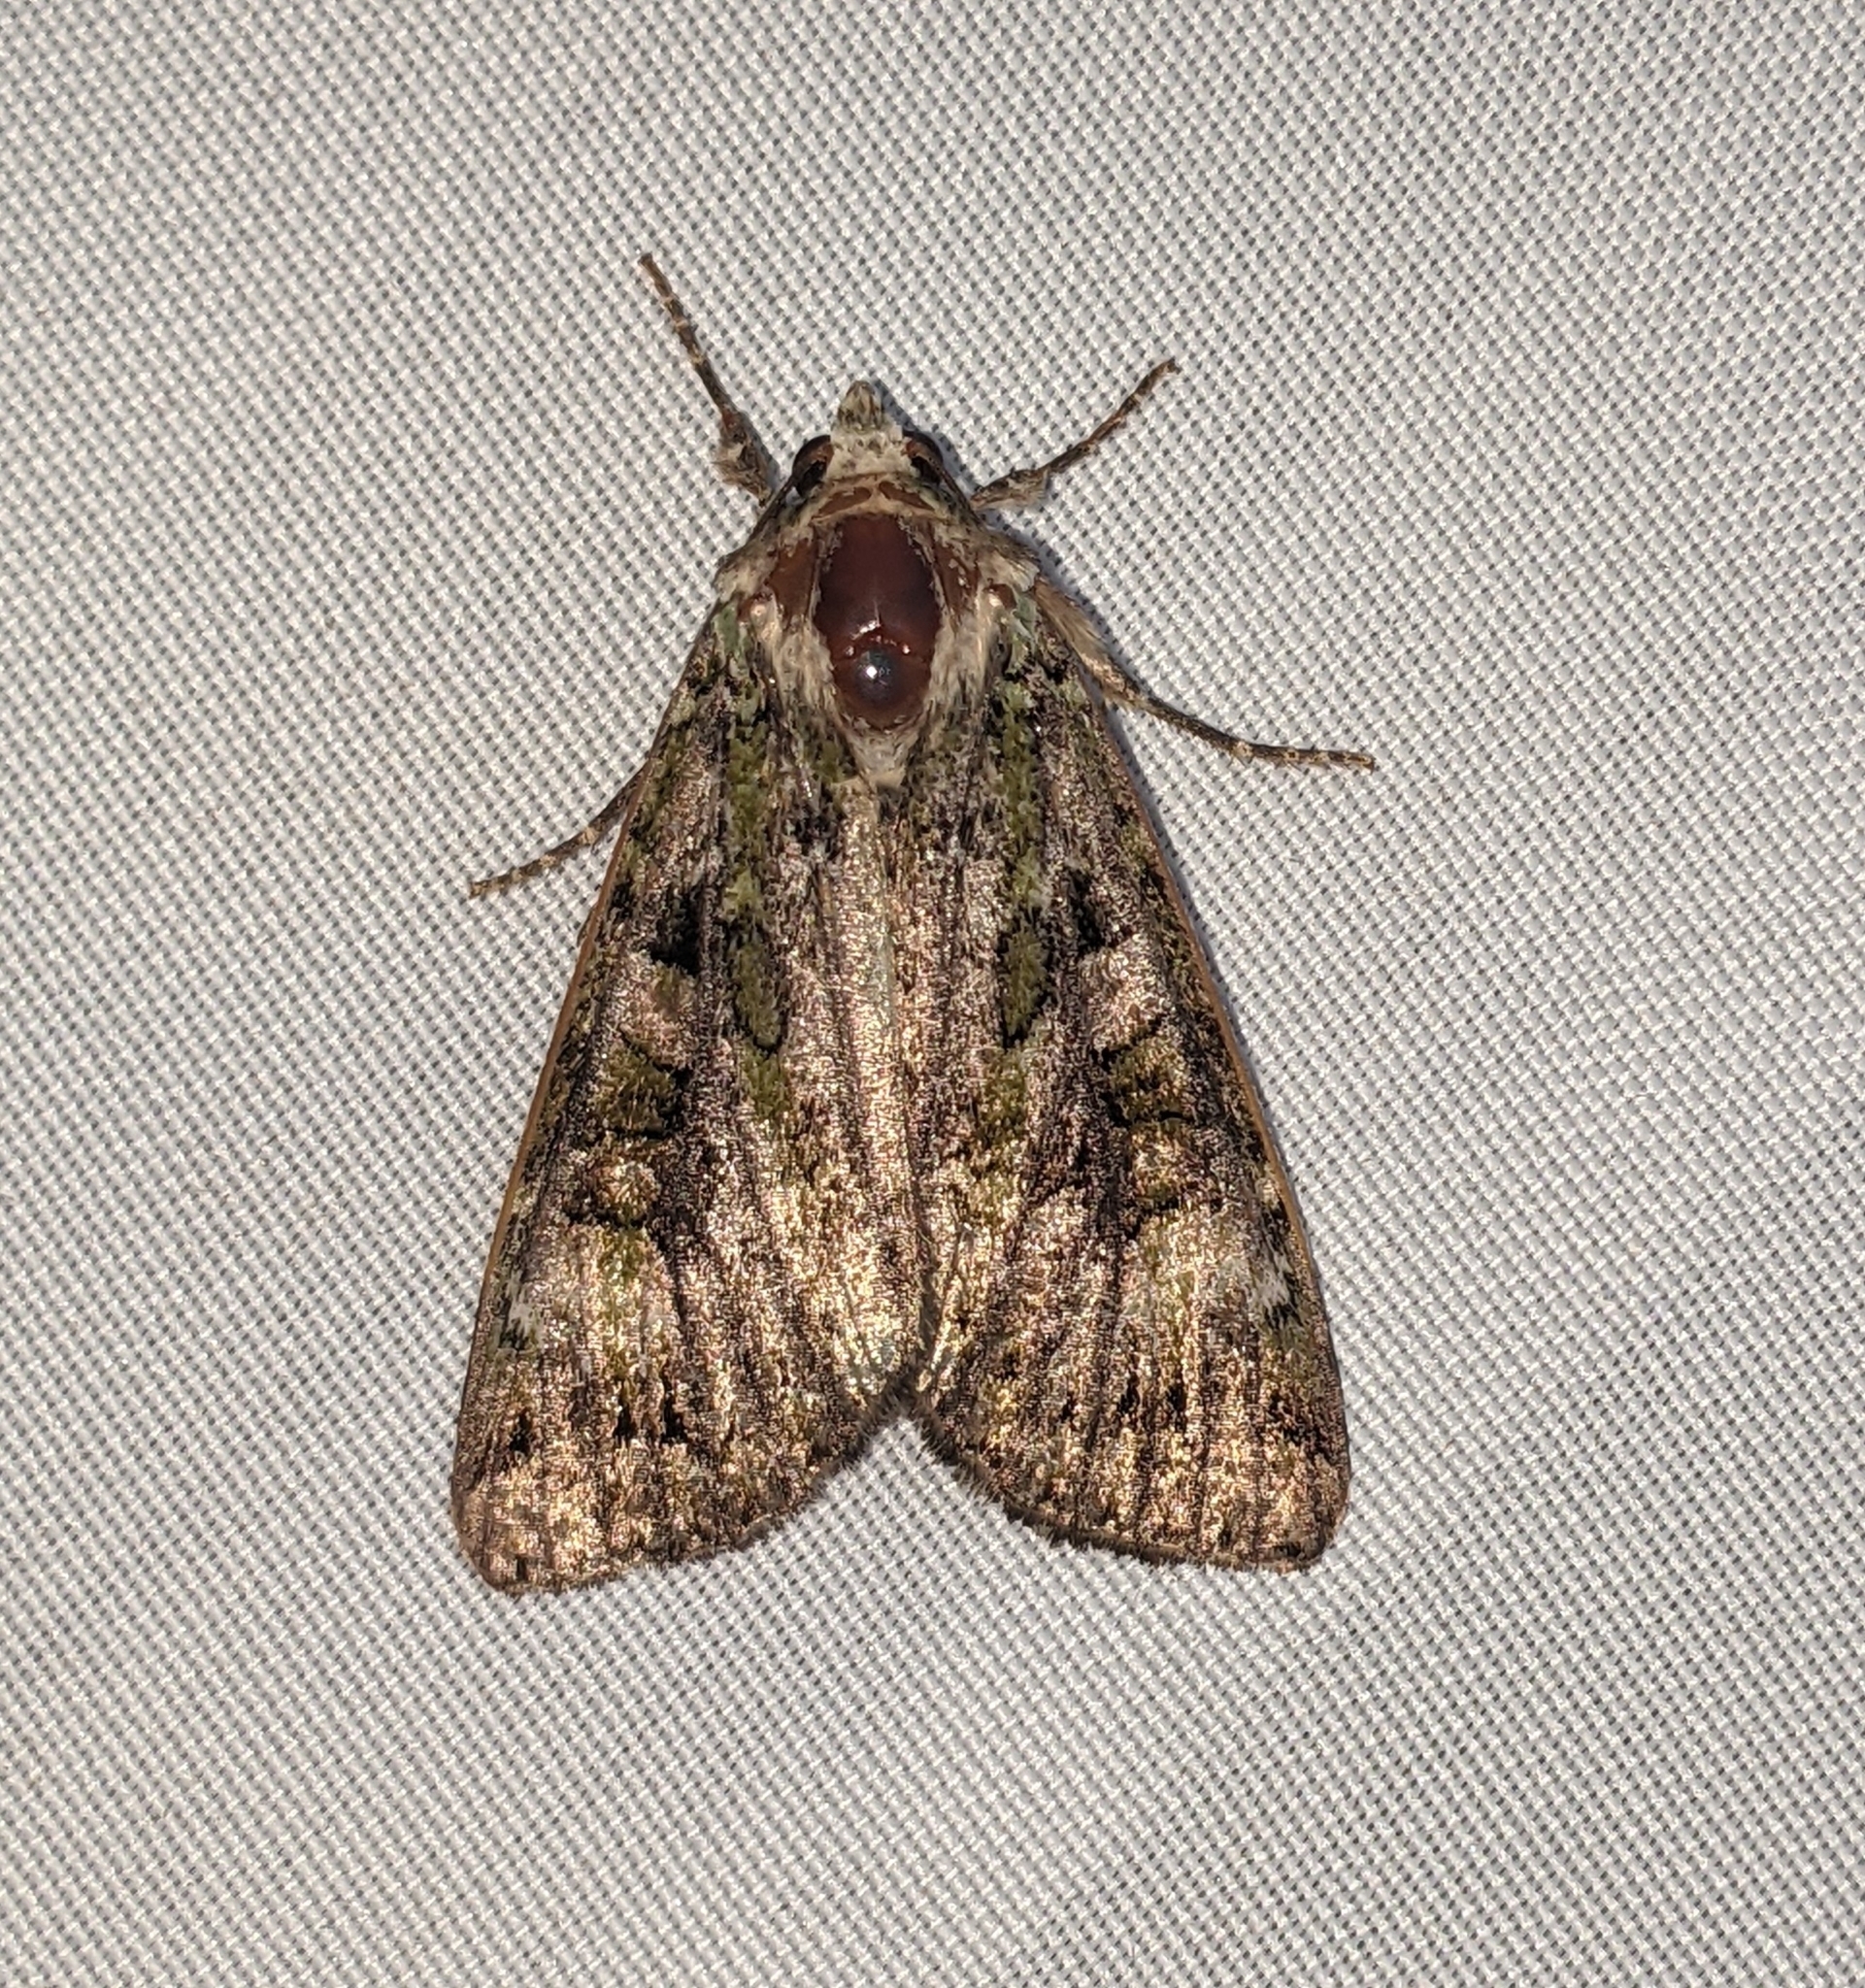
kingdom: Animalia
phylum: Arthropoda
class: Insecta
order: Lepidoptera
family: Noctuidae
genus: Anaplectoides
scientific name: Anaplectoides prasina
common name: Green arches
